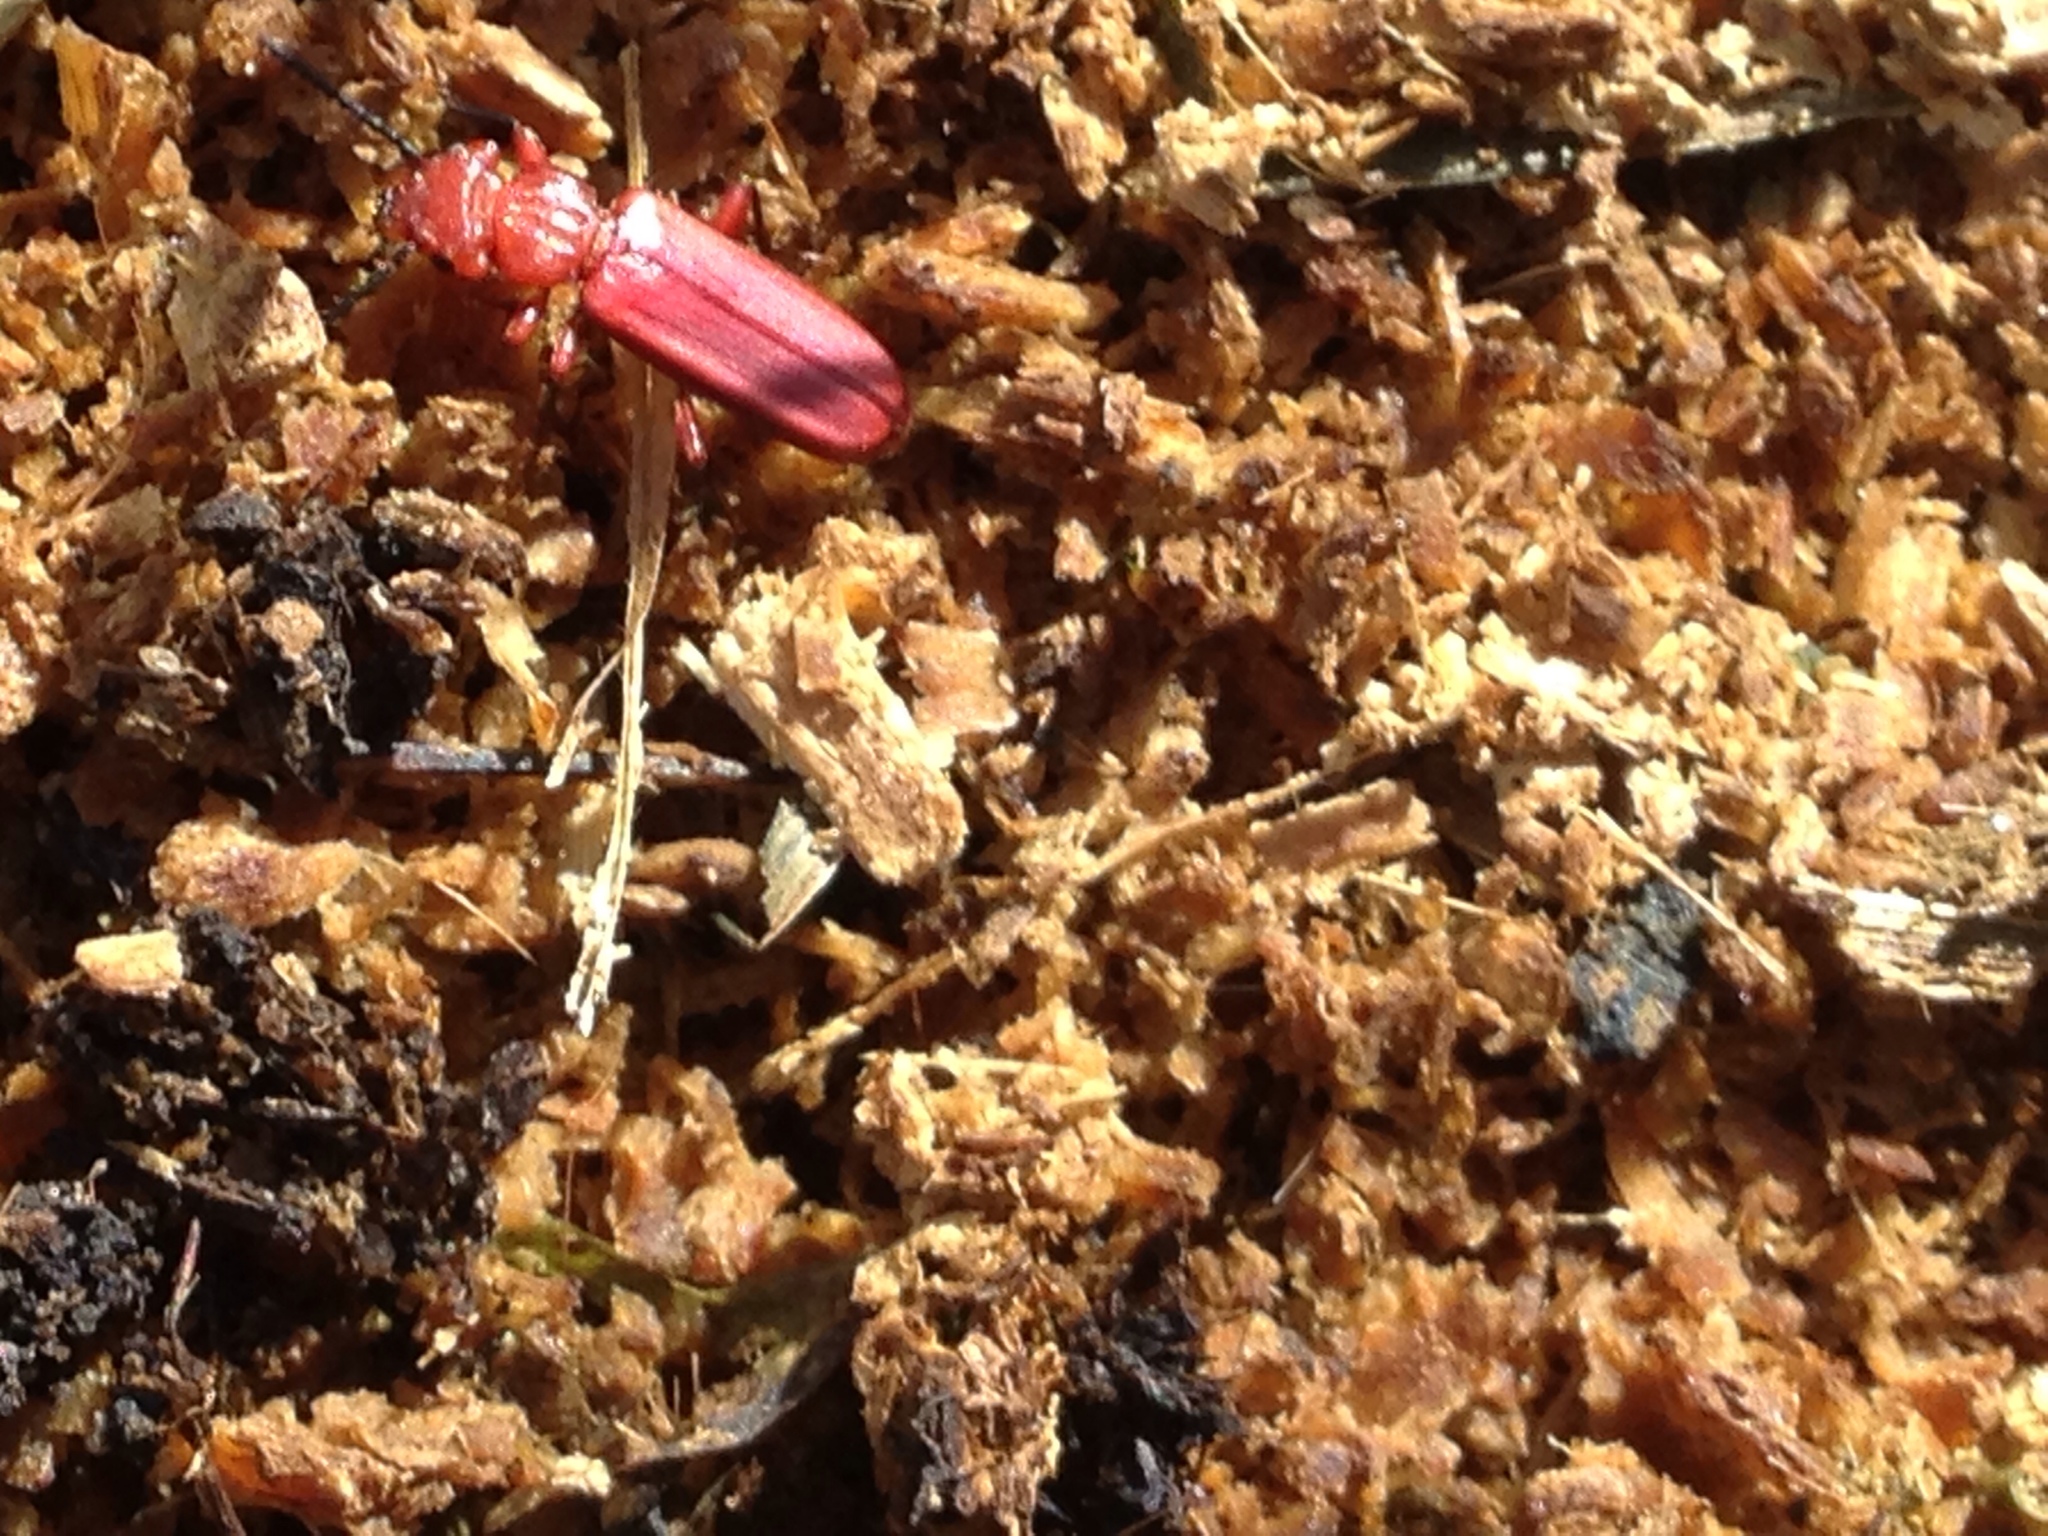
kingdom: Animalia
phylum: Arthropoda
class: Insecta
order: Coleoptera
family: Cucujidae
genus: Cucujus
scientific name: Cucujus clavipes
